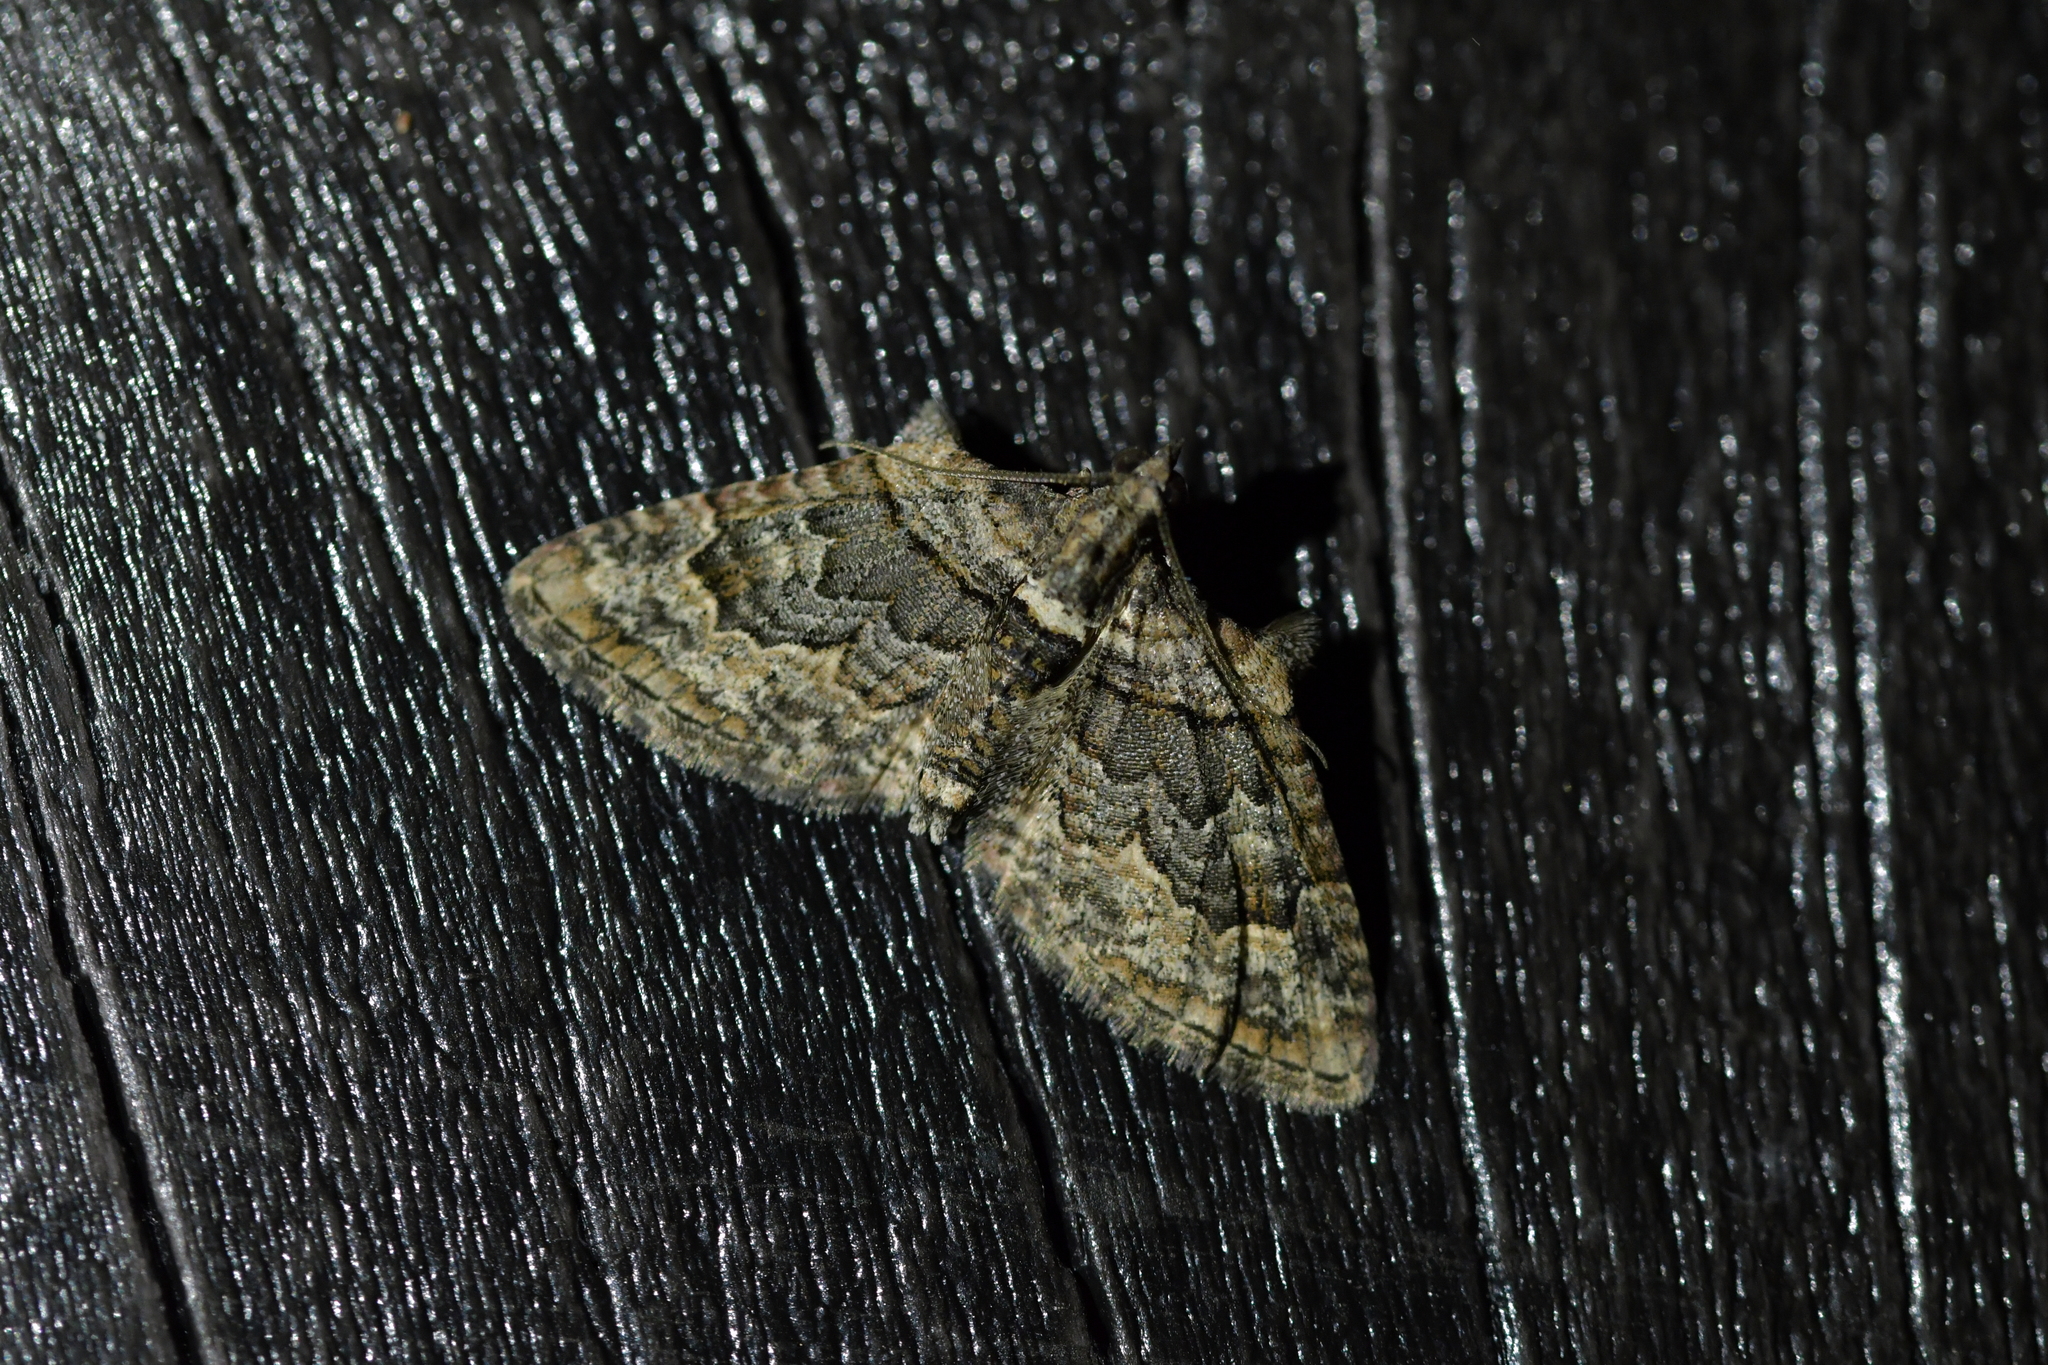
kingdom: Animalia
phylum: Arthropoda
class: Insecta
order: Lepidoptera
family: Geometridae
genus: Phrissogonus
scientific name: Phrissogonus laticostata
